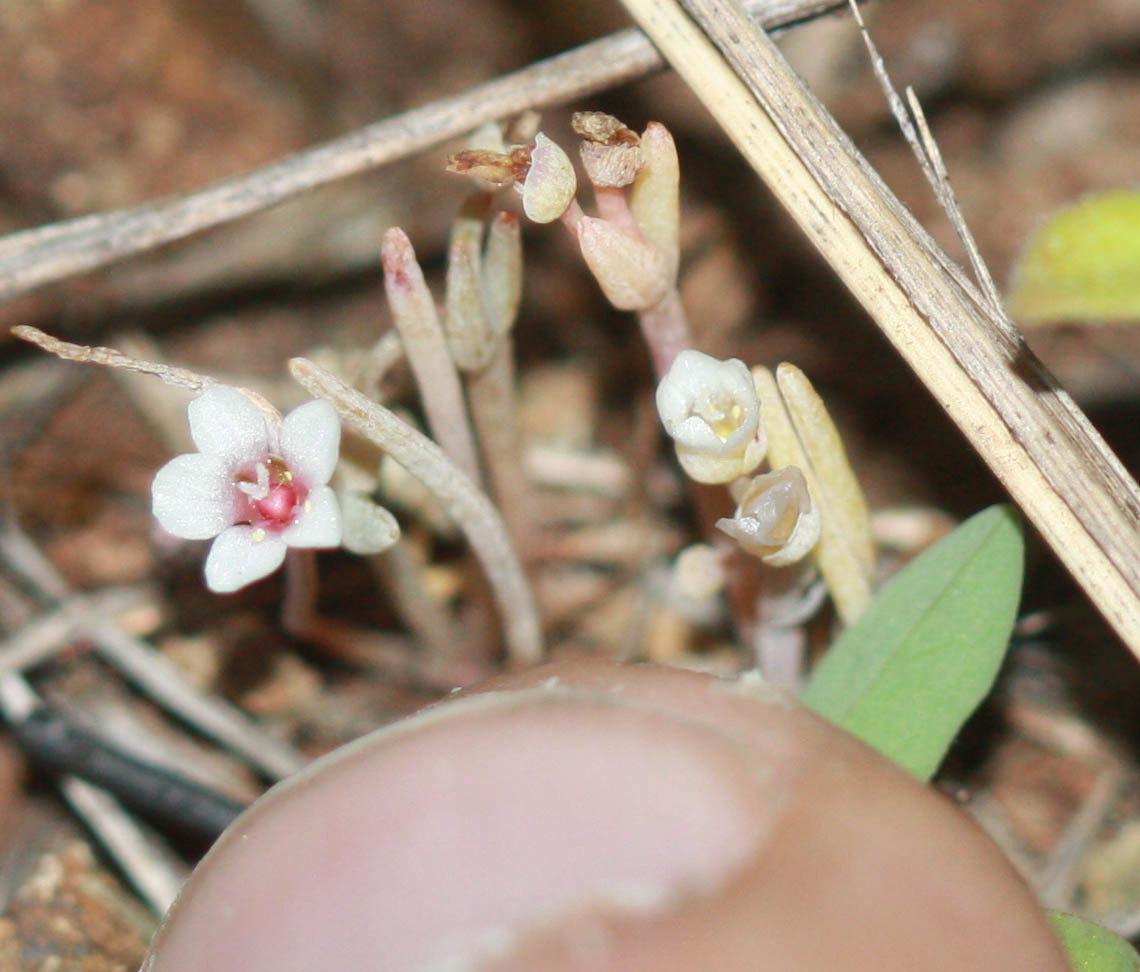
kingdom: Plantae
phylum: Tracheophyta
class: Magnoliopsida
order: Caryophyllales
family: Montiaceae
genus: Claytonia
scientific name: Claytonia exigua
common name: Pale spring beauty
